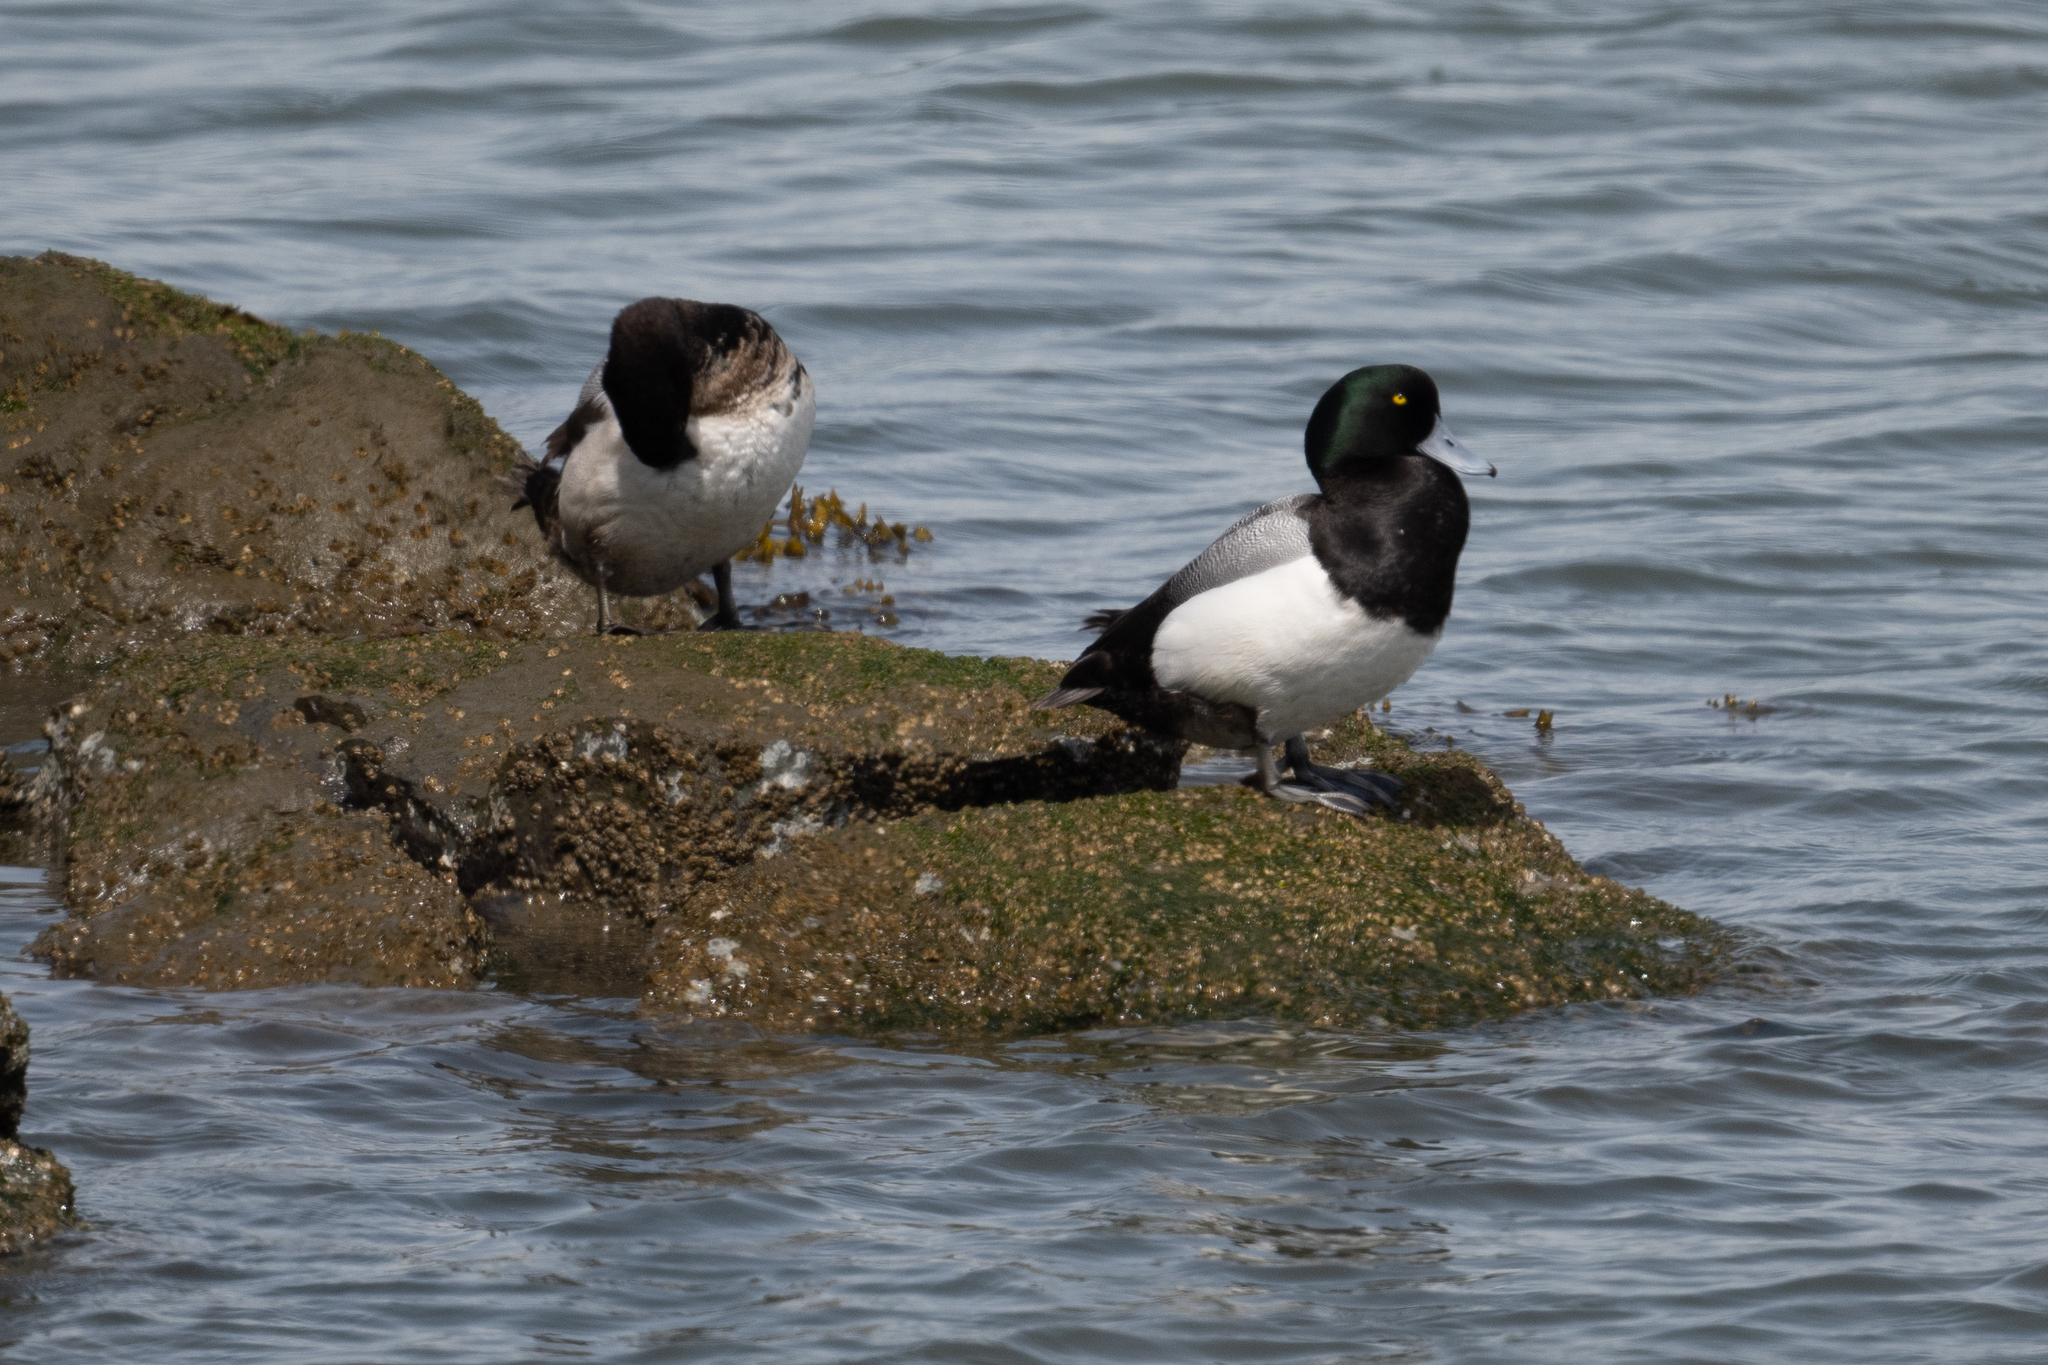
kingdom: Animalia
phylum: Chordata
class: Aves
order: Anseriformes
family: Anatidae
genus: Aythya
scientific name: Aythya marila
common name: Greater scaup
